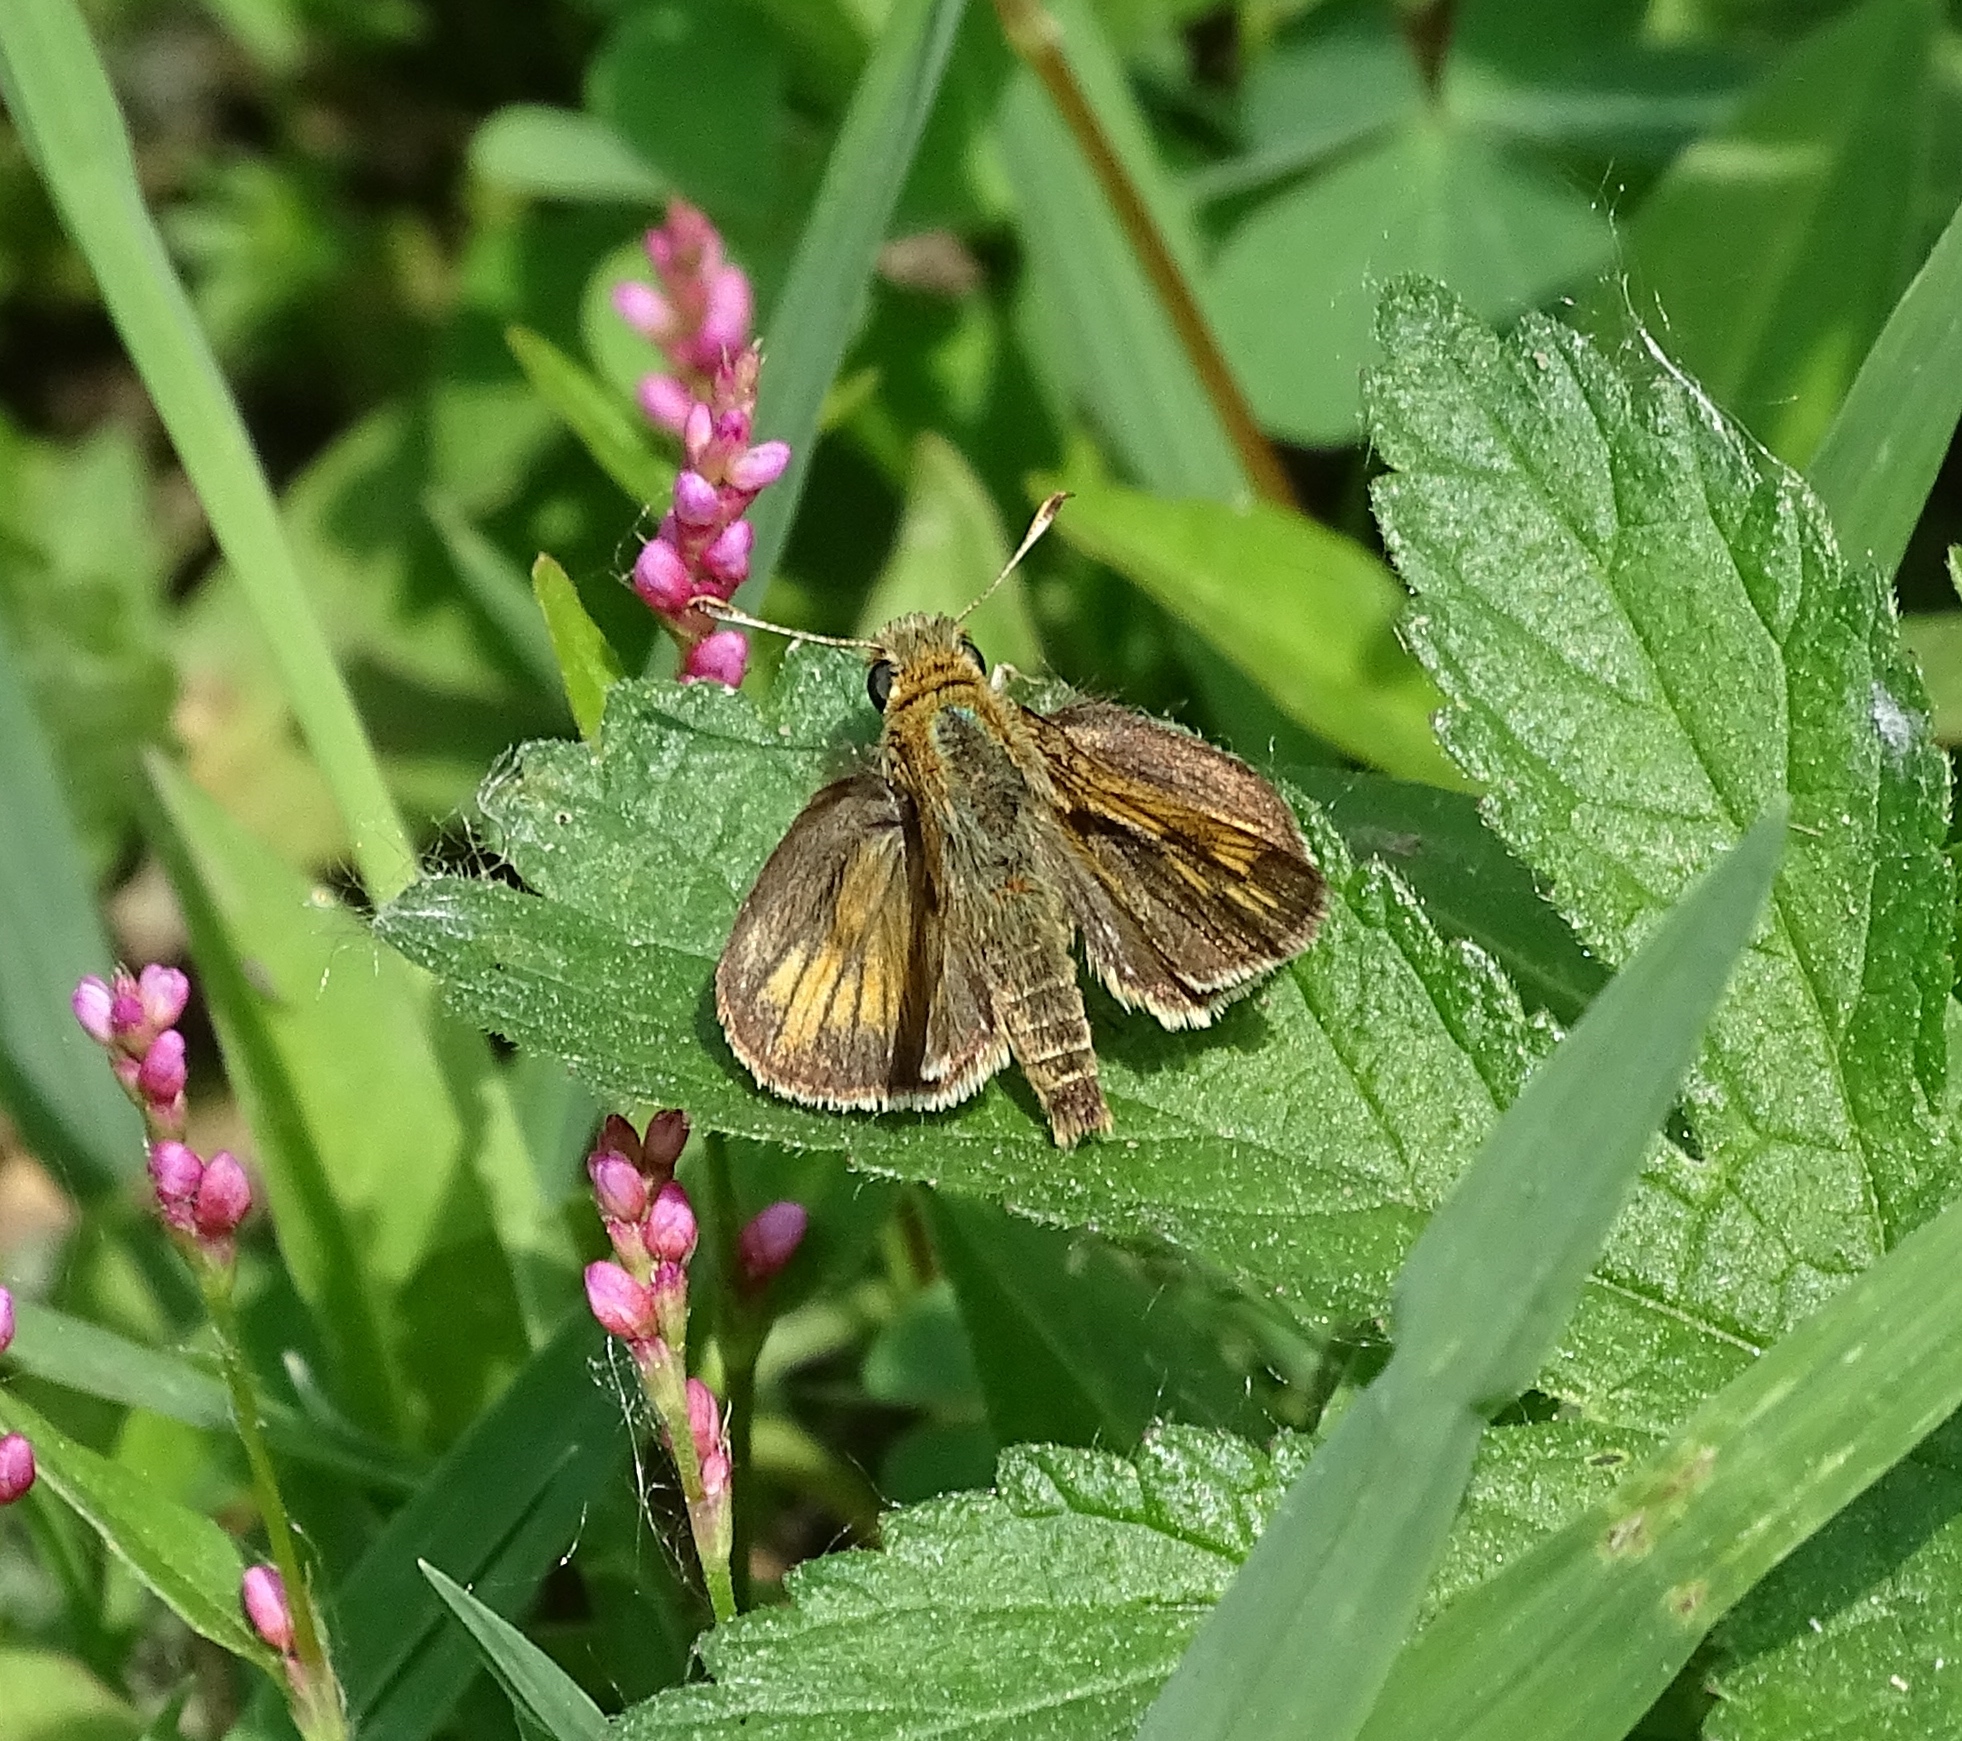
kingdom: Animalia
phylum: Arthropoda
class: Insecta
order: Lepidoptera
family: Hesperiidae
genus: Polites
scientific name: Polites coras
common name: Peck's skipper
